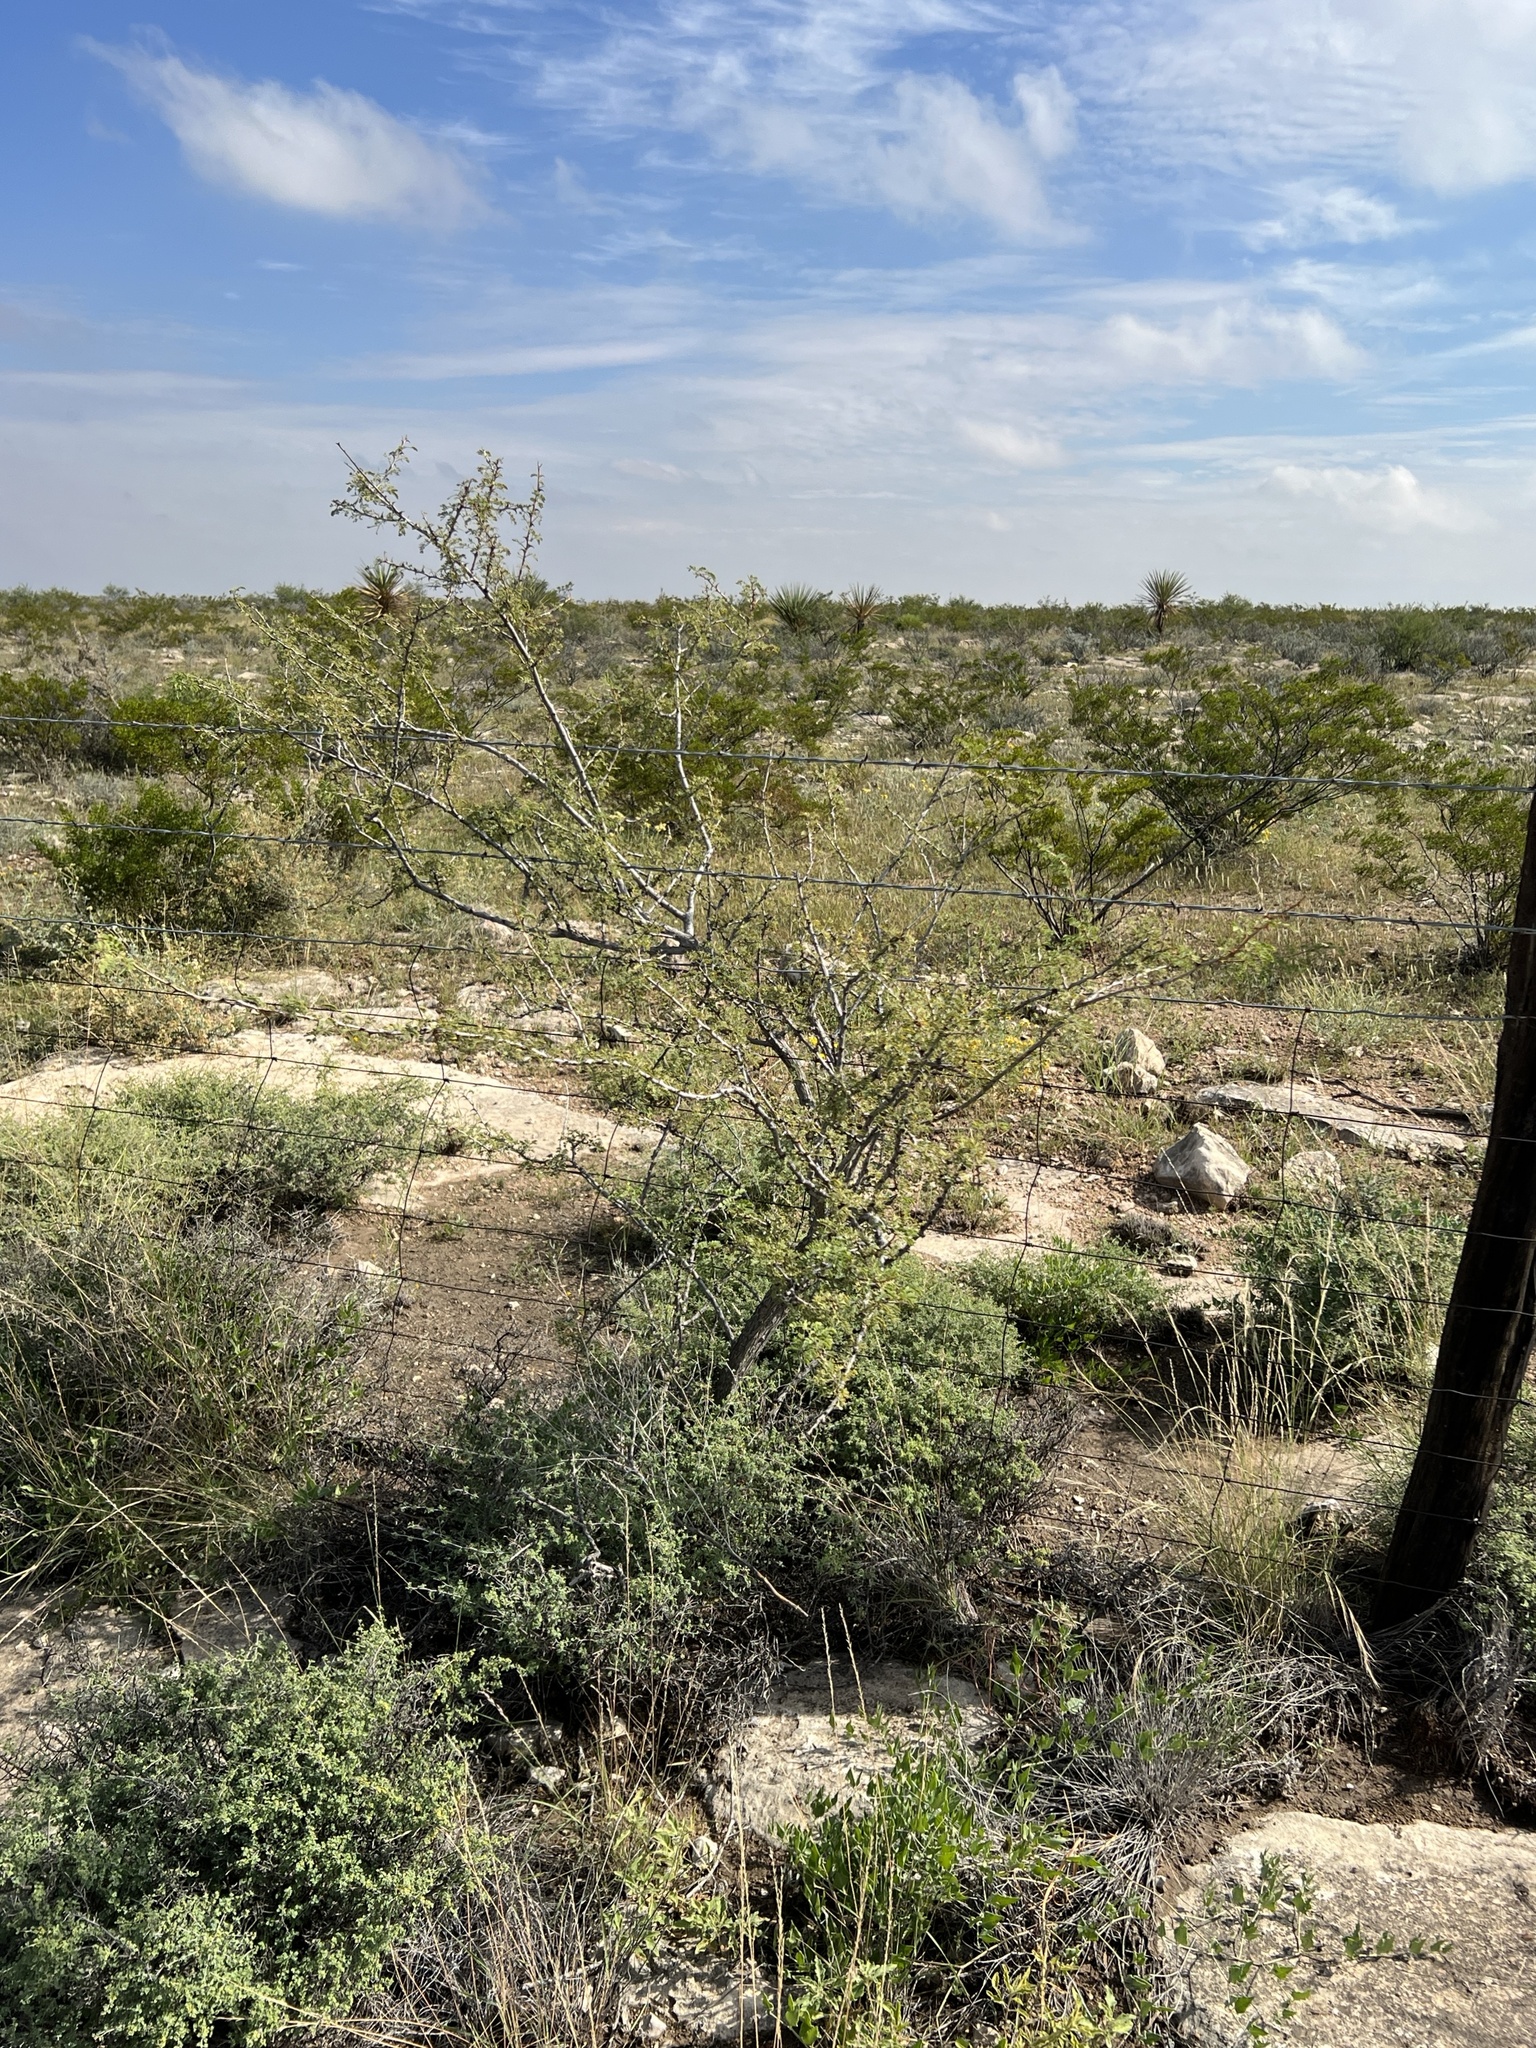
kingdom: Plantae
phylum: Tracheophyta
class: Magnoliopsida
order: Fabales
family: Fabaceae
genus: Senegalia
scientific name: Senegalia greggii
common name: Texas-mimosa
